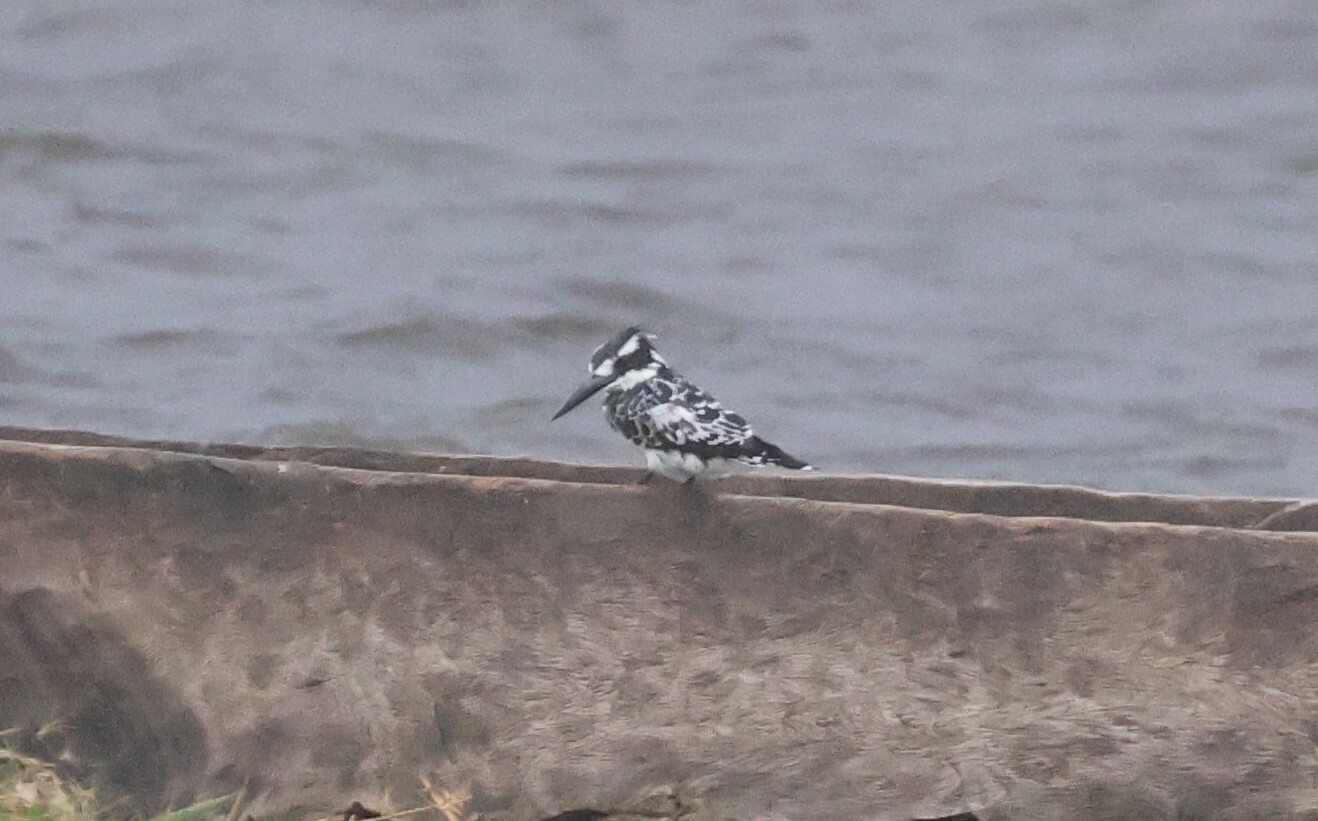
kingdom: Animalia
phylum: Chordata
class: Aves
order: Coraciiformes
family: Alcedinidae
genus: Ceryle
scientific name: Ceryle rudis
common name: Pied kingfisher
